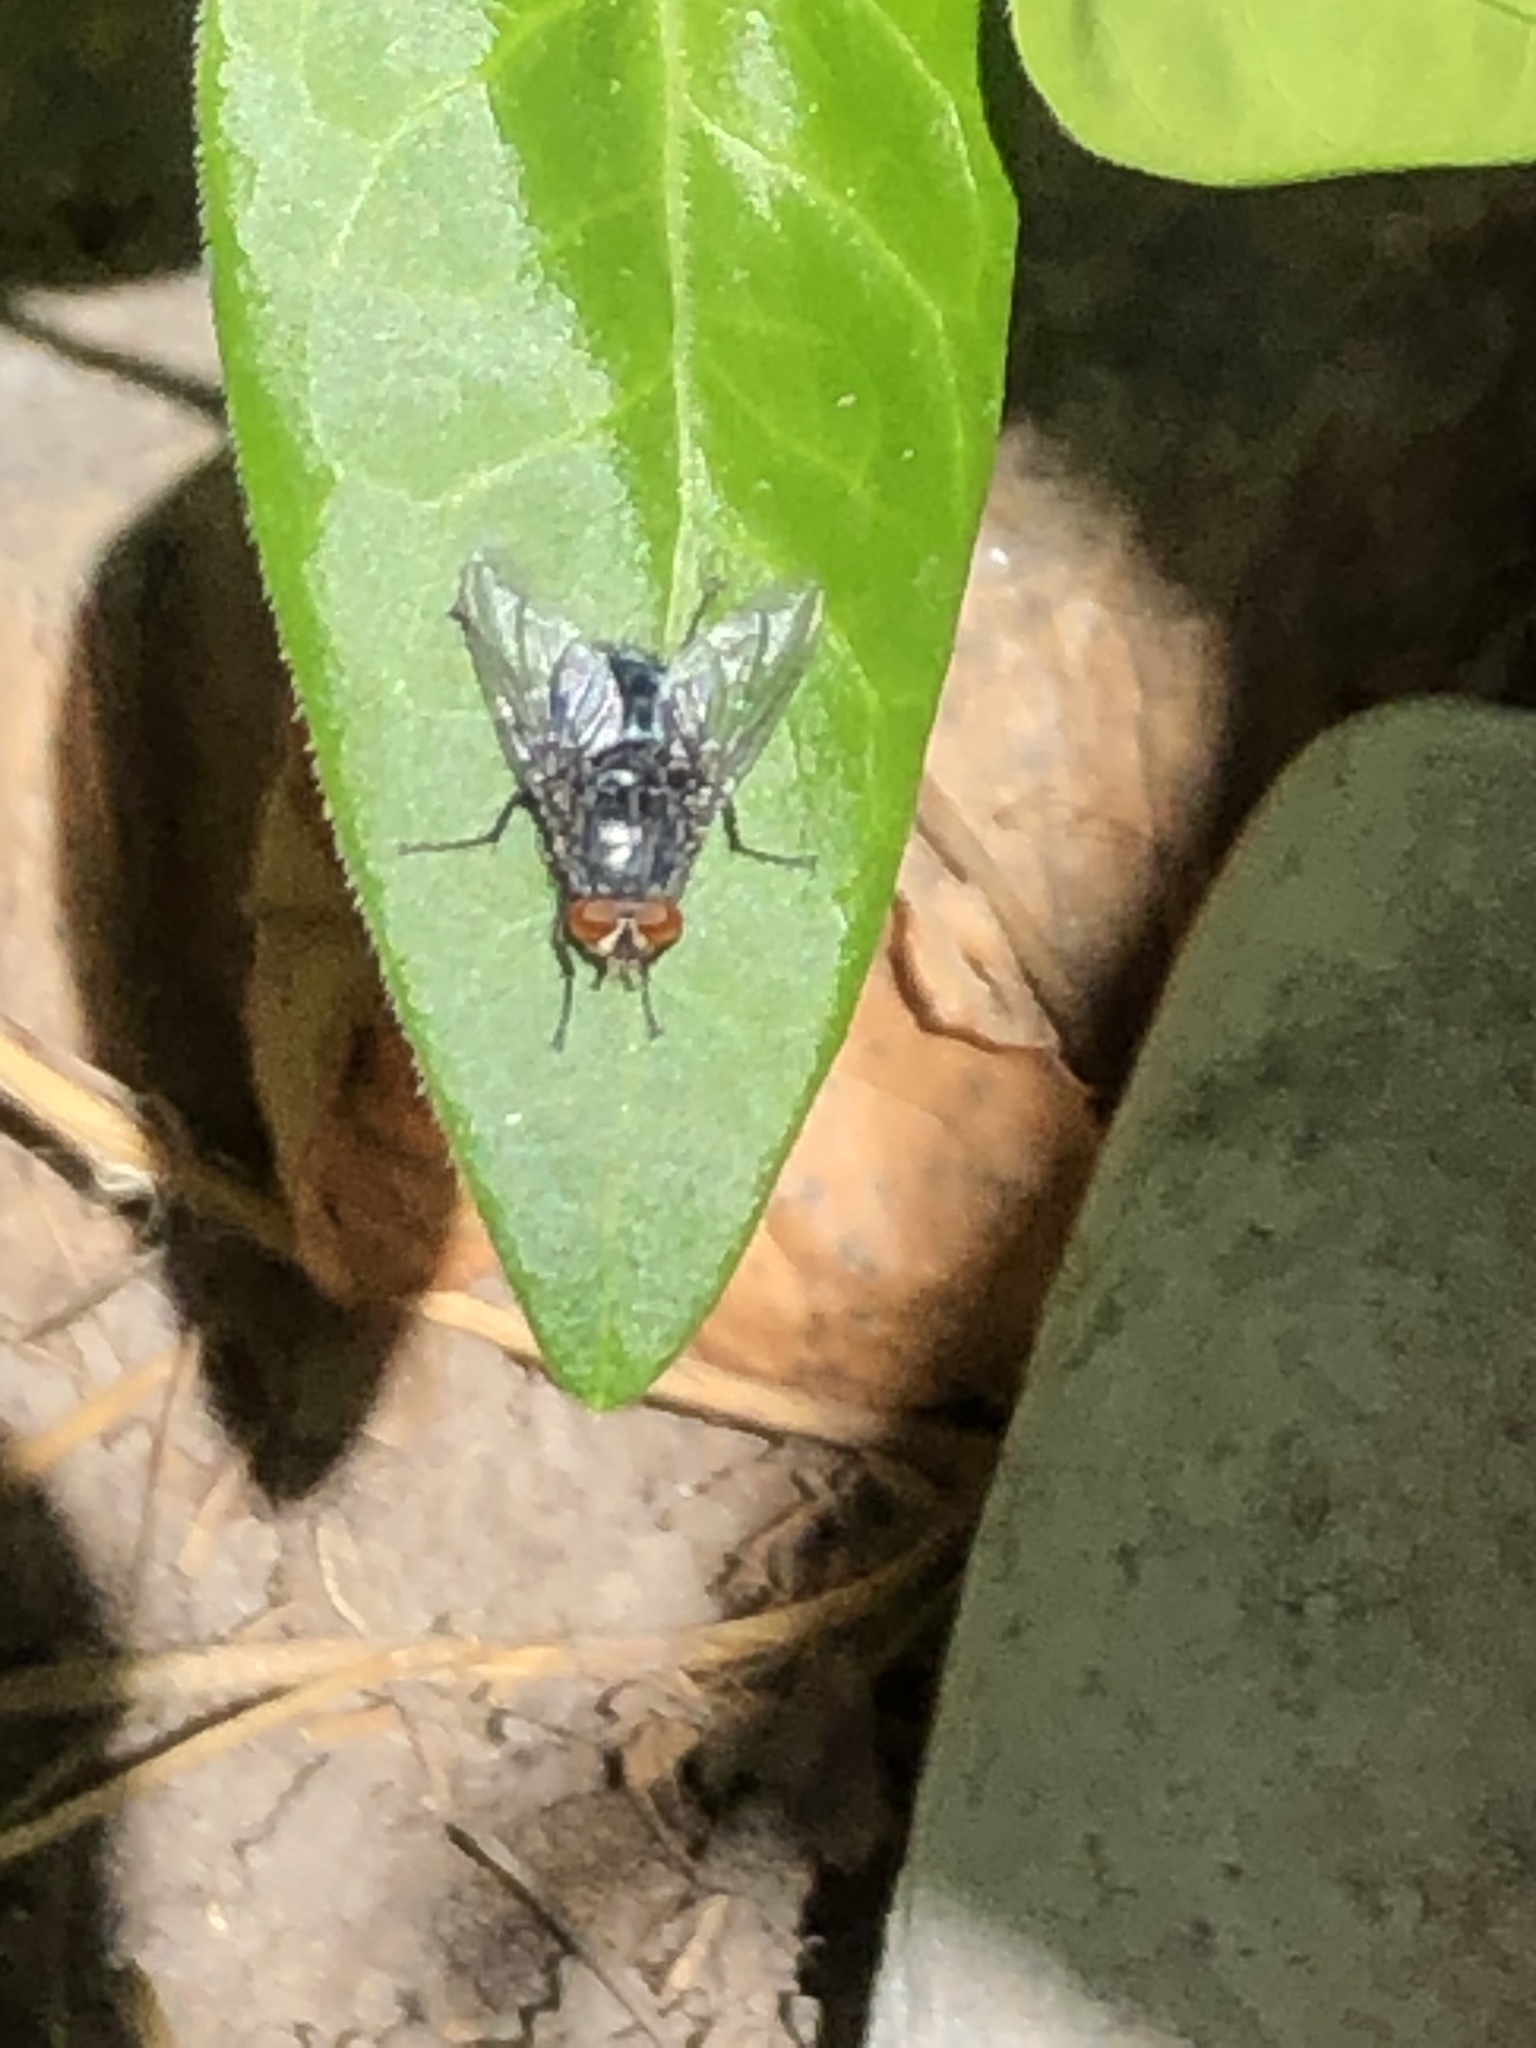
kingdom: Animalia
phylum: Arthropoda
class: Insecta
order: Diptera
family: Calliphoridae
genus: Calliphora
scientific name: Calliphora vicina
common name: Common blow flie
